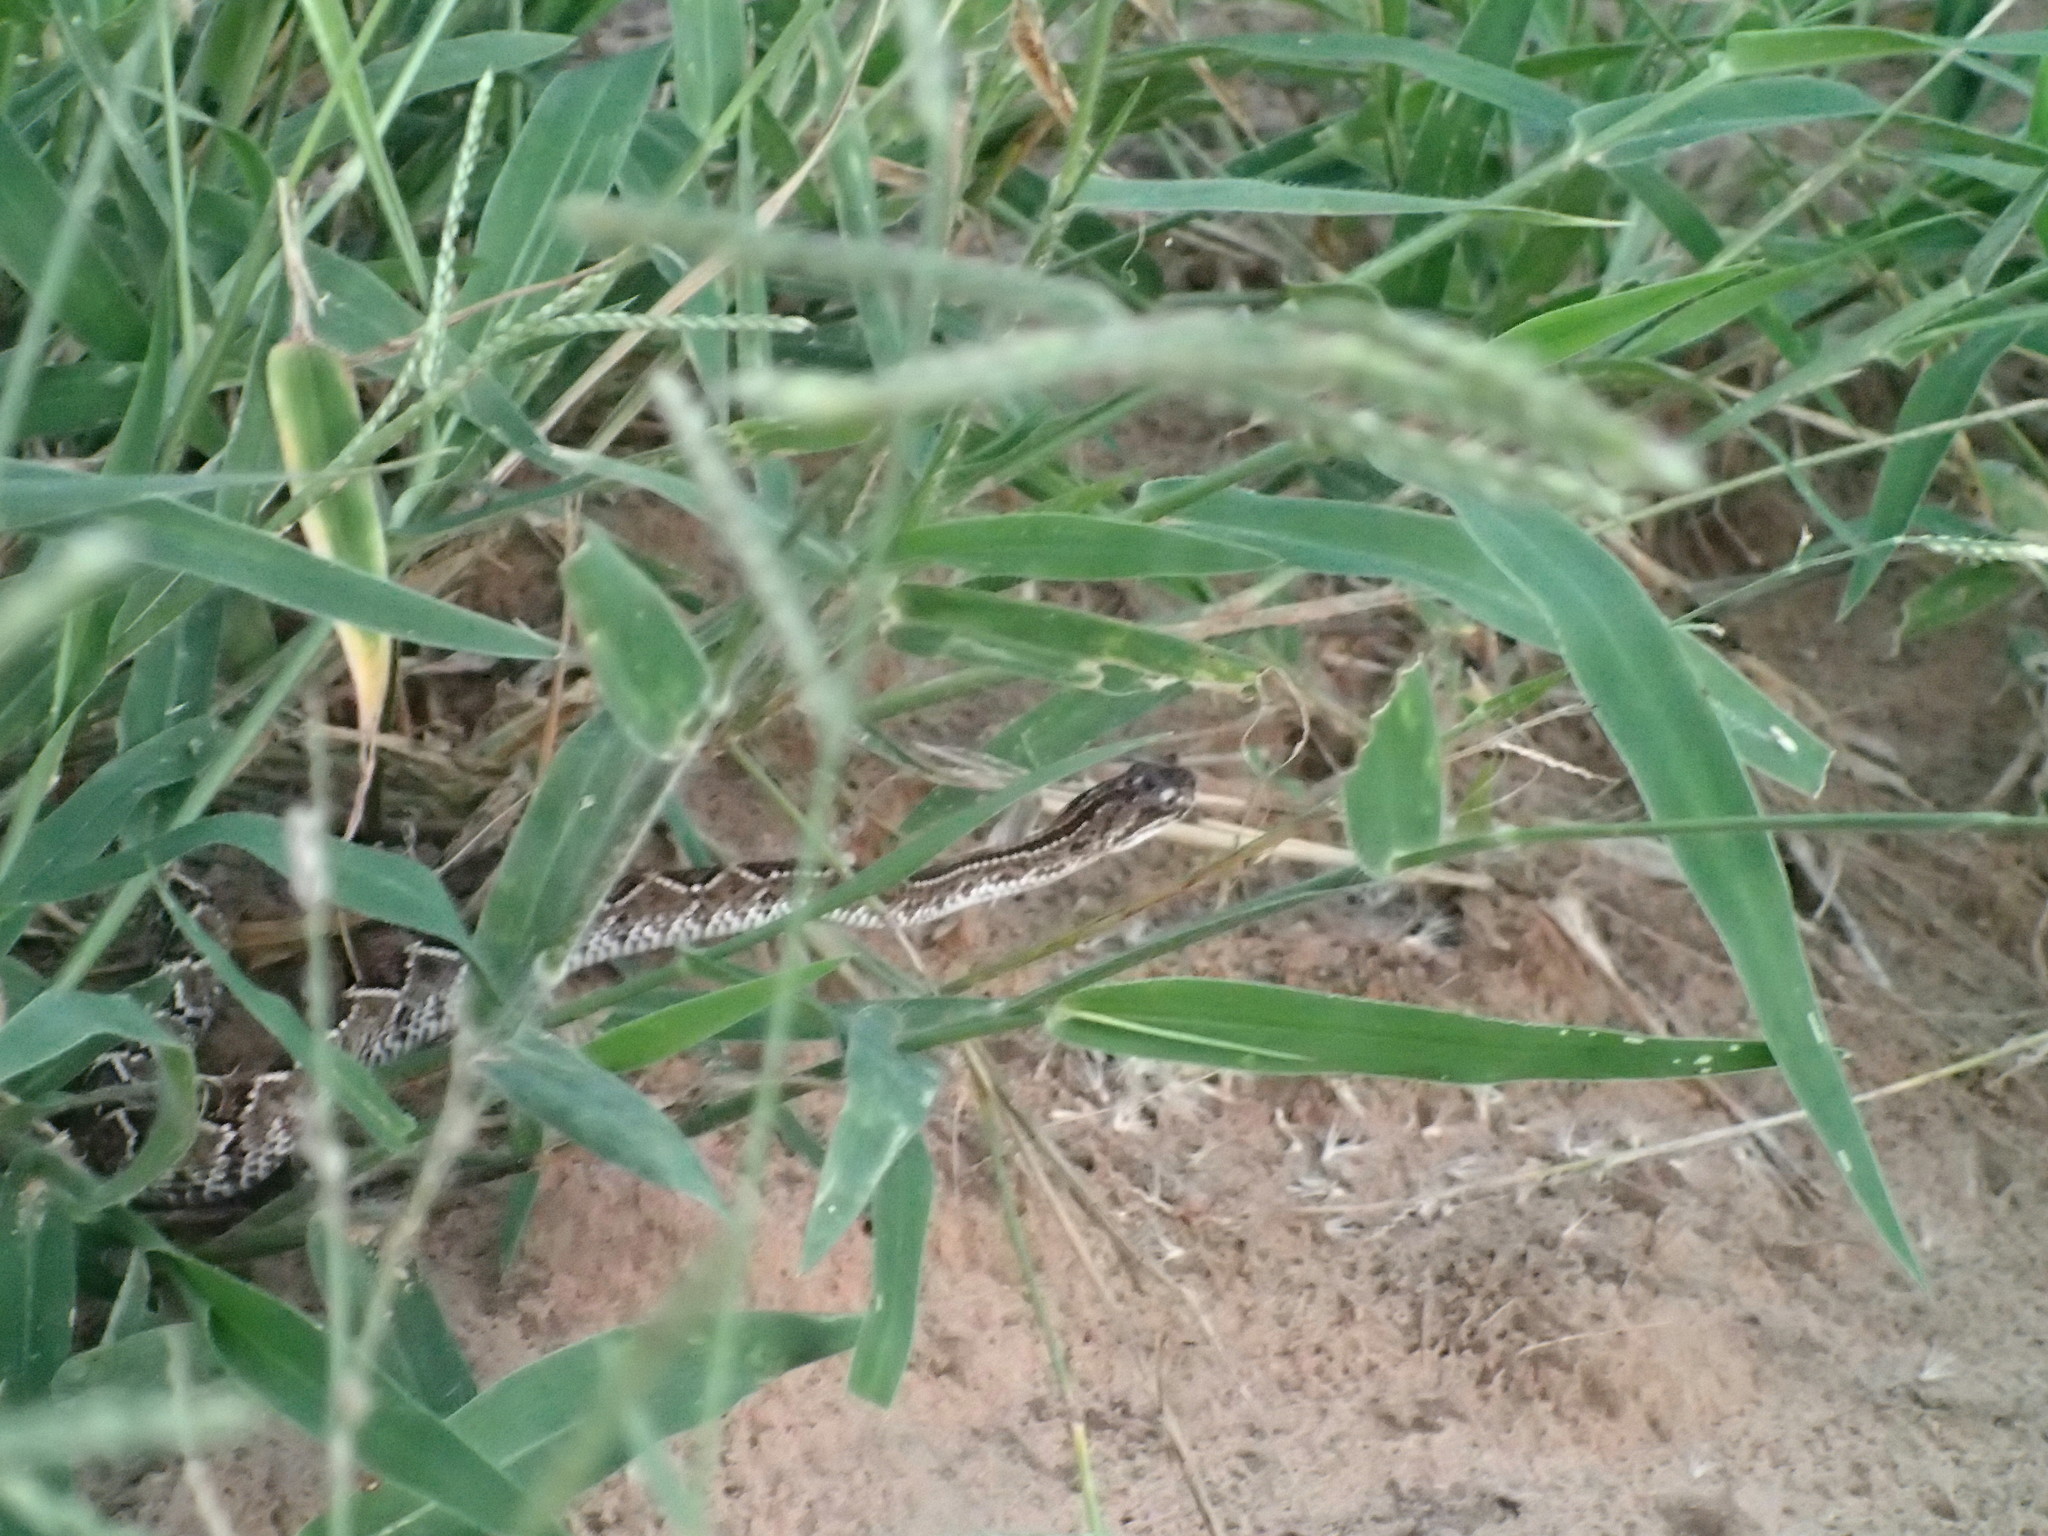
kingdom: Animalia
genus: Crotalus
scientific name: Crotalus durissus
